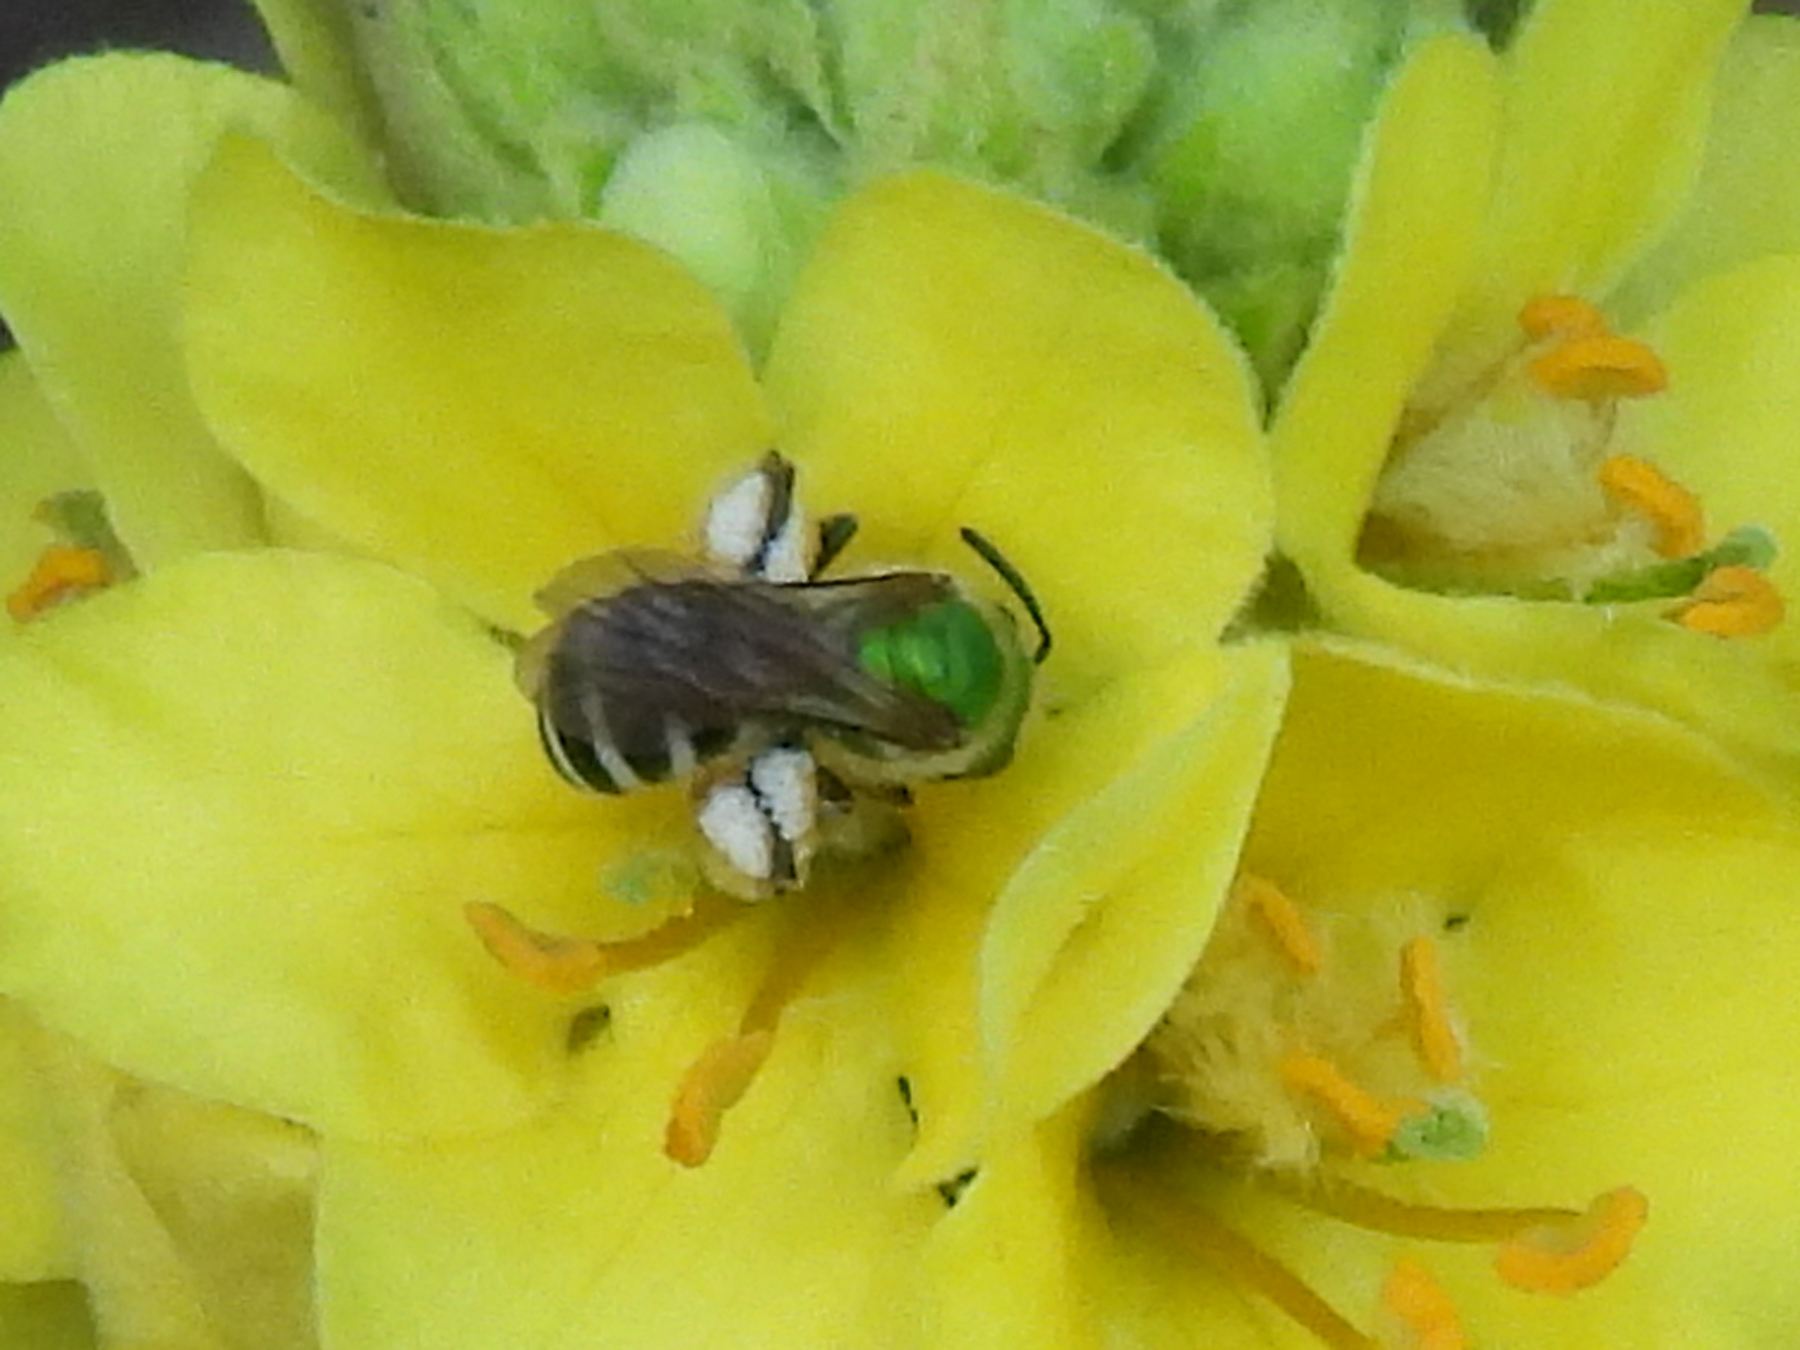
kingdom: Animalia
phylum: Arthropoda
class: Insecta
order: Hymenoptera
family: Halictidae
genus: Agapostemon
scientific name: Agapostemon virescens
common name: Bicolored striped sweat bee
